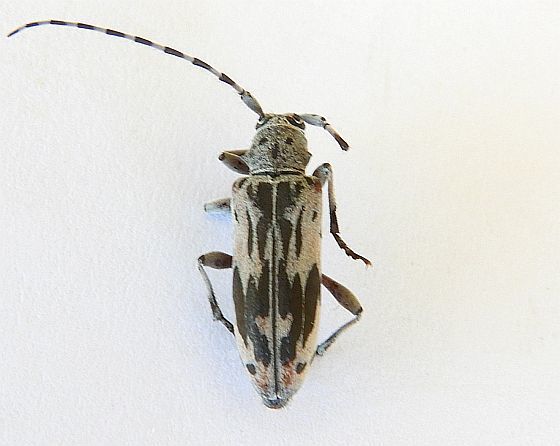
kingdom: Animalia
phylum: Arthropoda
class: Insecta
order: Coleoptera
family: Cerambycidae
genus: Tigrinestola
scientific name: Tigrinestola tigrina
